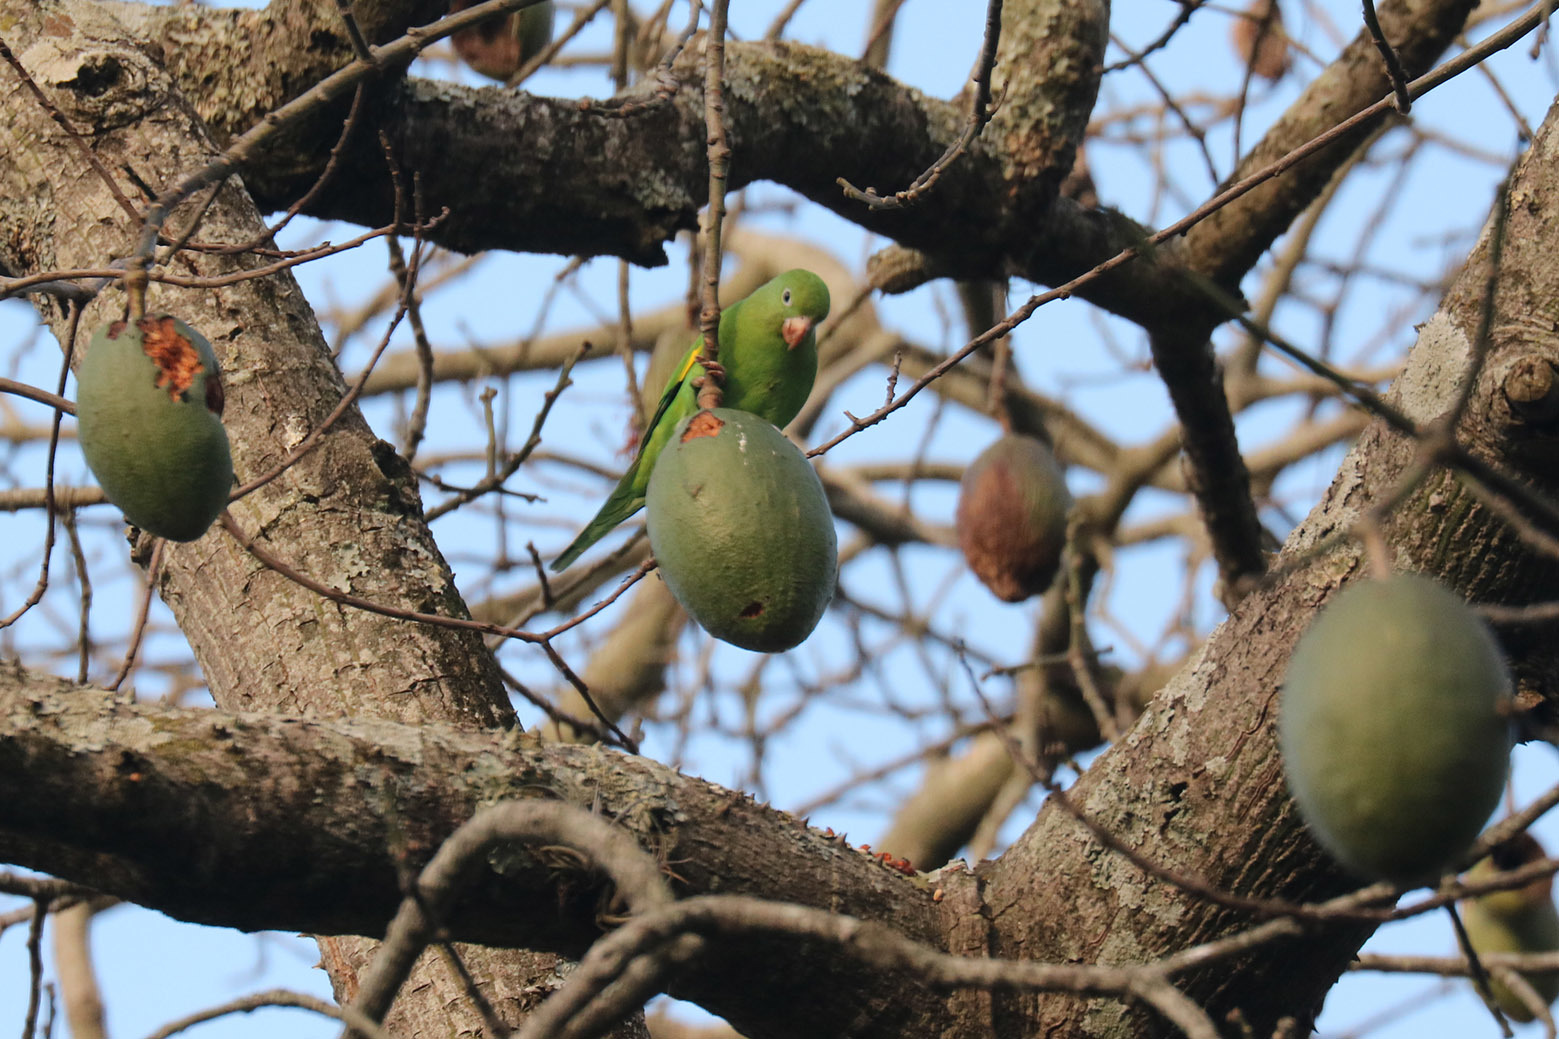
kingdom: Animalia
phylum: Chordata
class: Aves
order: Psittaciformes
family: Psittacidae
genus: Brotogeris
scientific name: Brotogeris chiriri
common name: Yellow-chevroned parakeet
